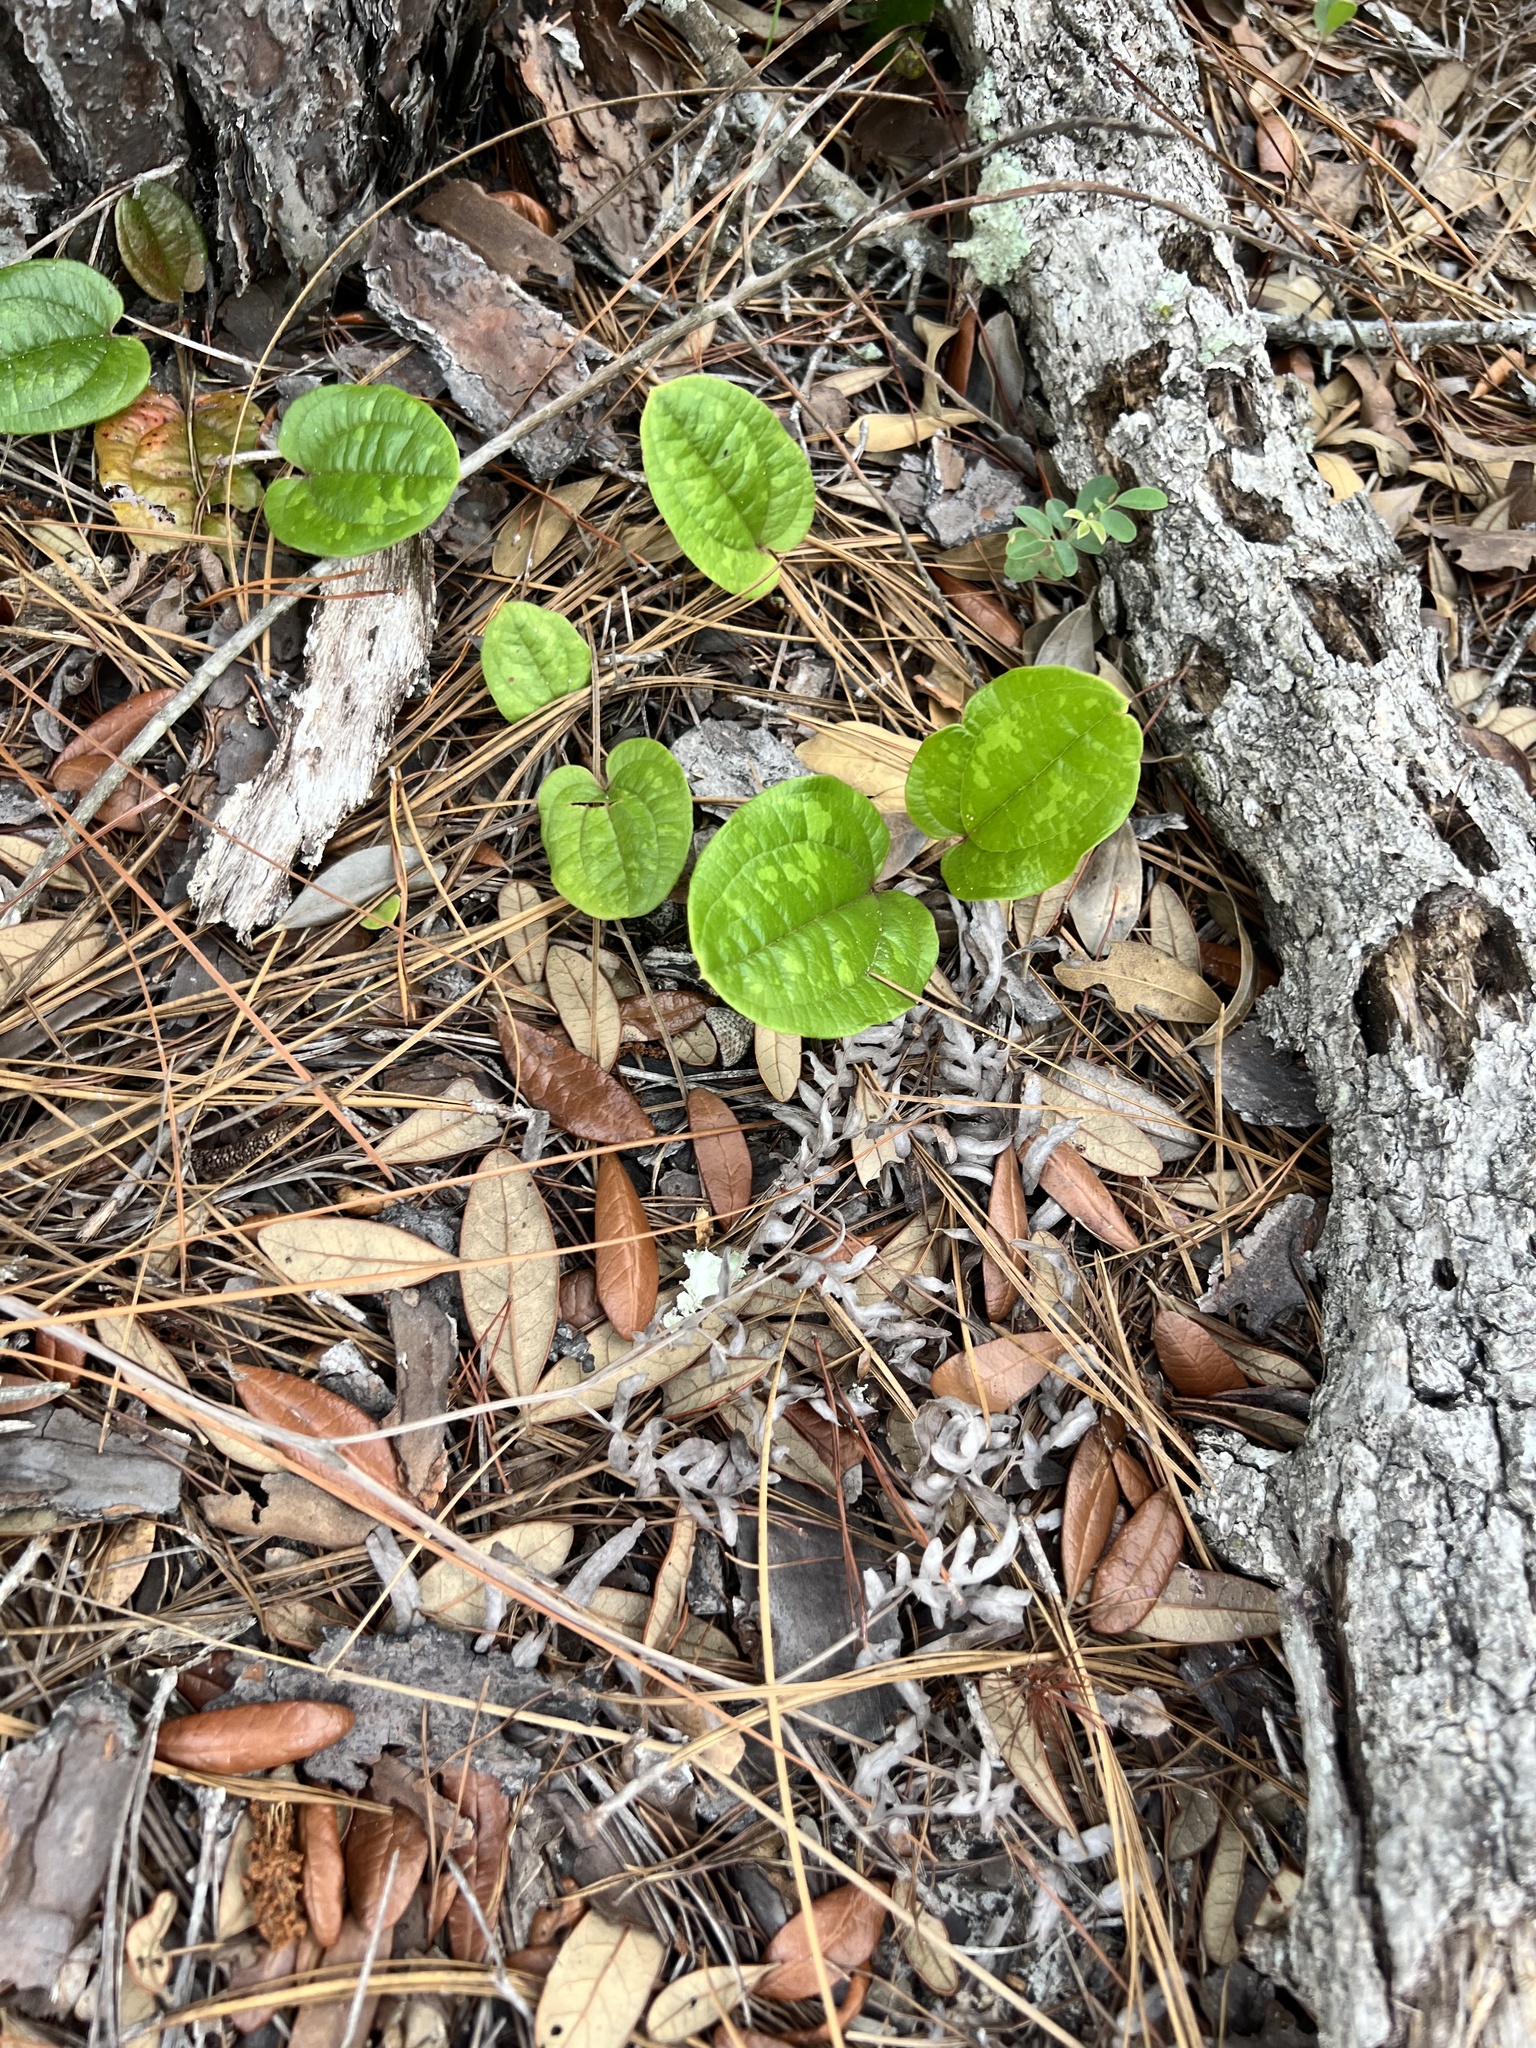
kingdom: Plantae
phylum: Tracheophyta
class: Liliopsida
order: Liliales
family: Smilacaceae
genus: Smilax
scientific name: Smilax pumila
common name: Sarsaparilla-vine
